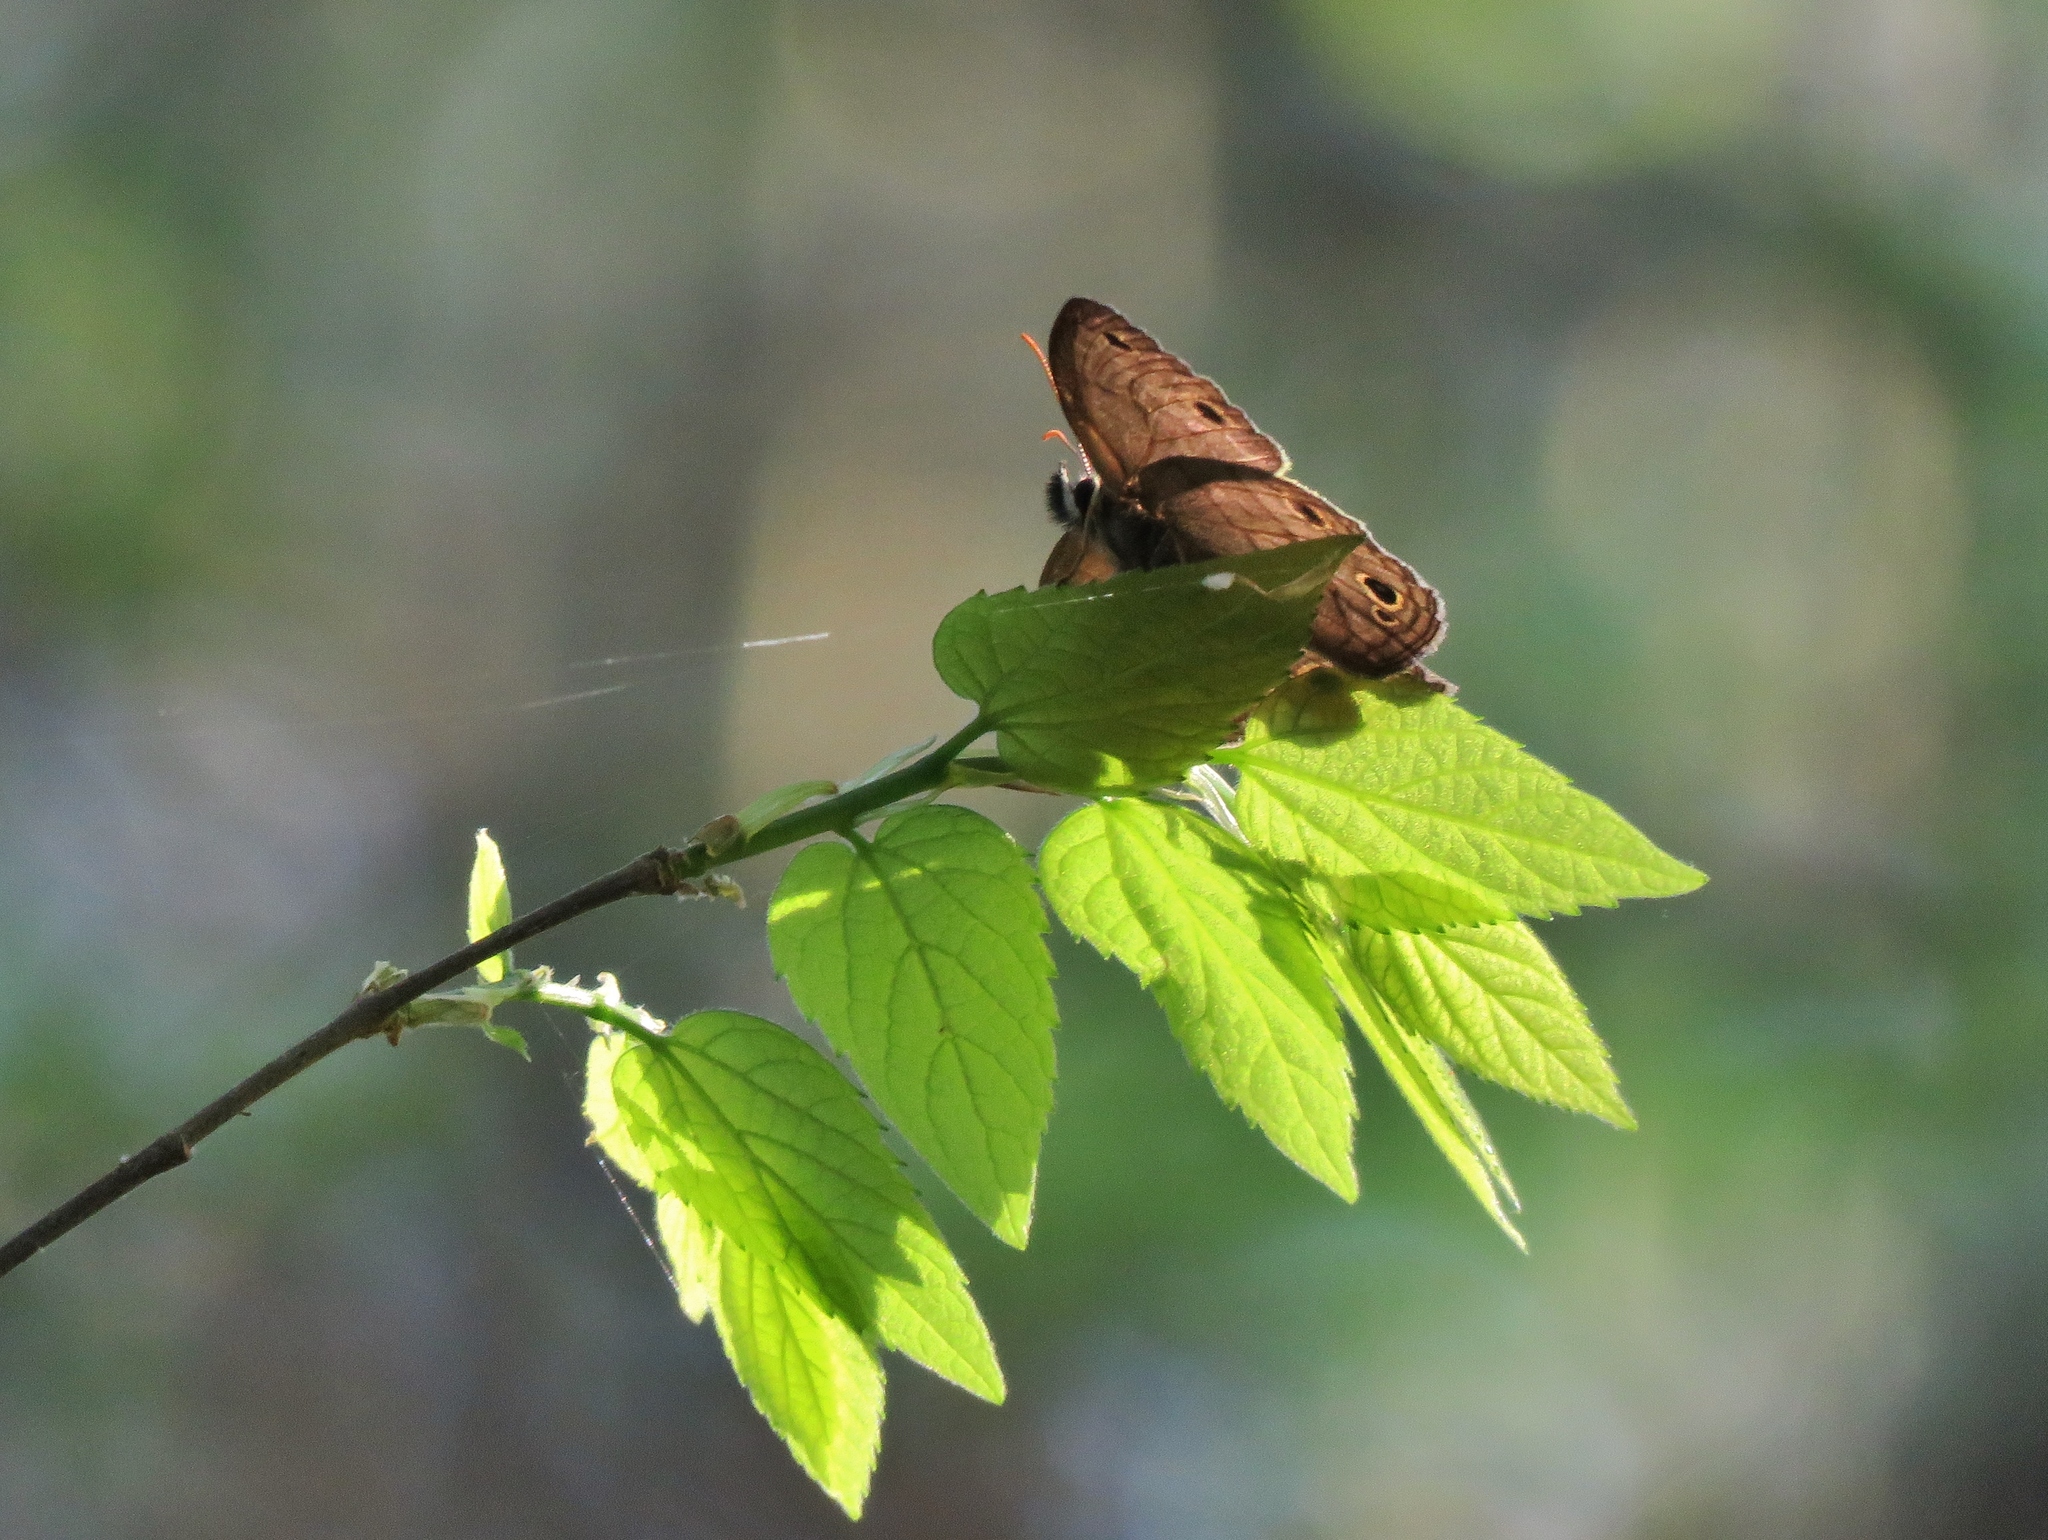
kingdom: Animalia
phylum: Arthropoda
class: Insecta
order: Lepidoptera
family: Nymphalidae
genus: Euptychia
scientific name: Euptychia cymela
